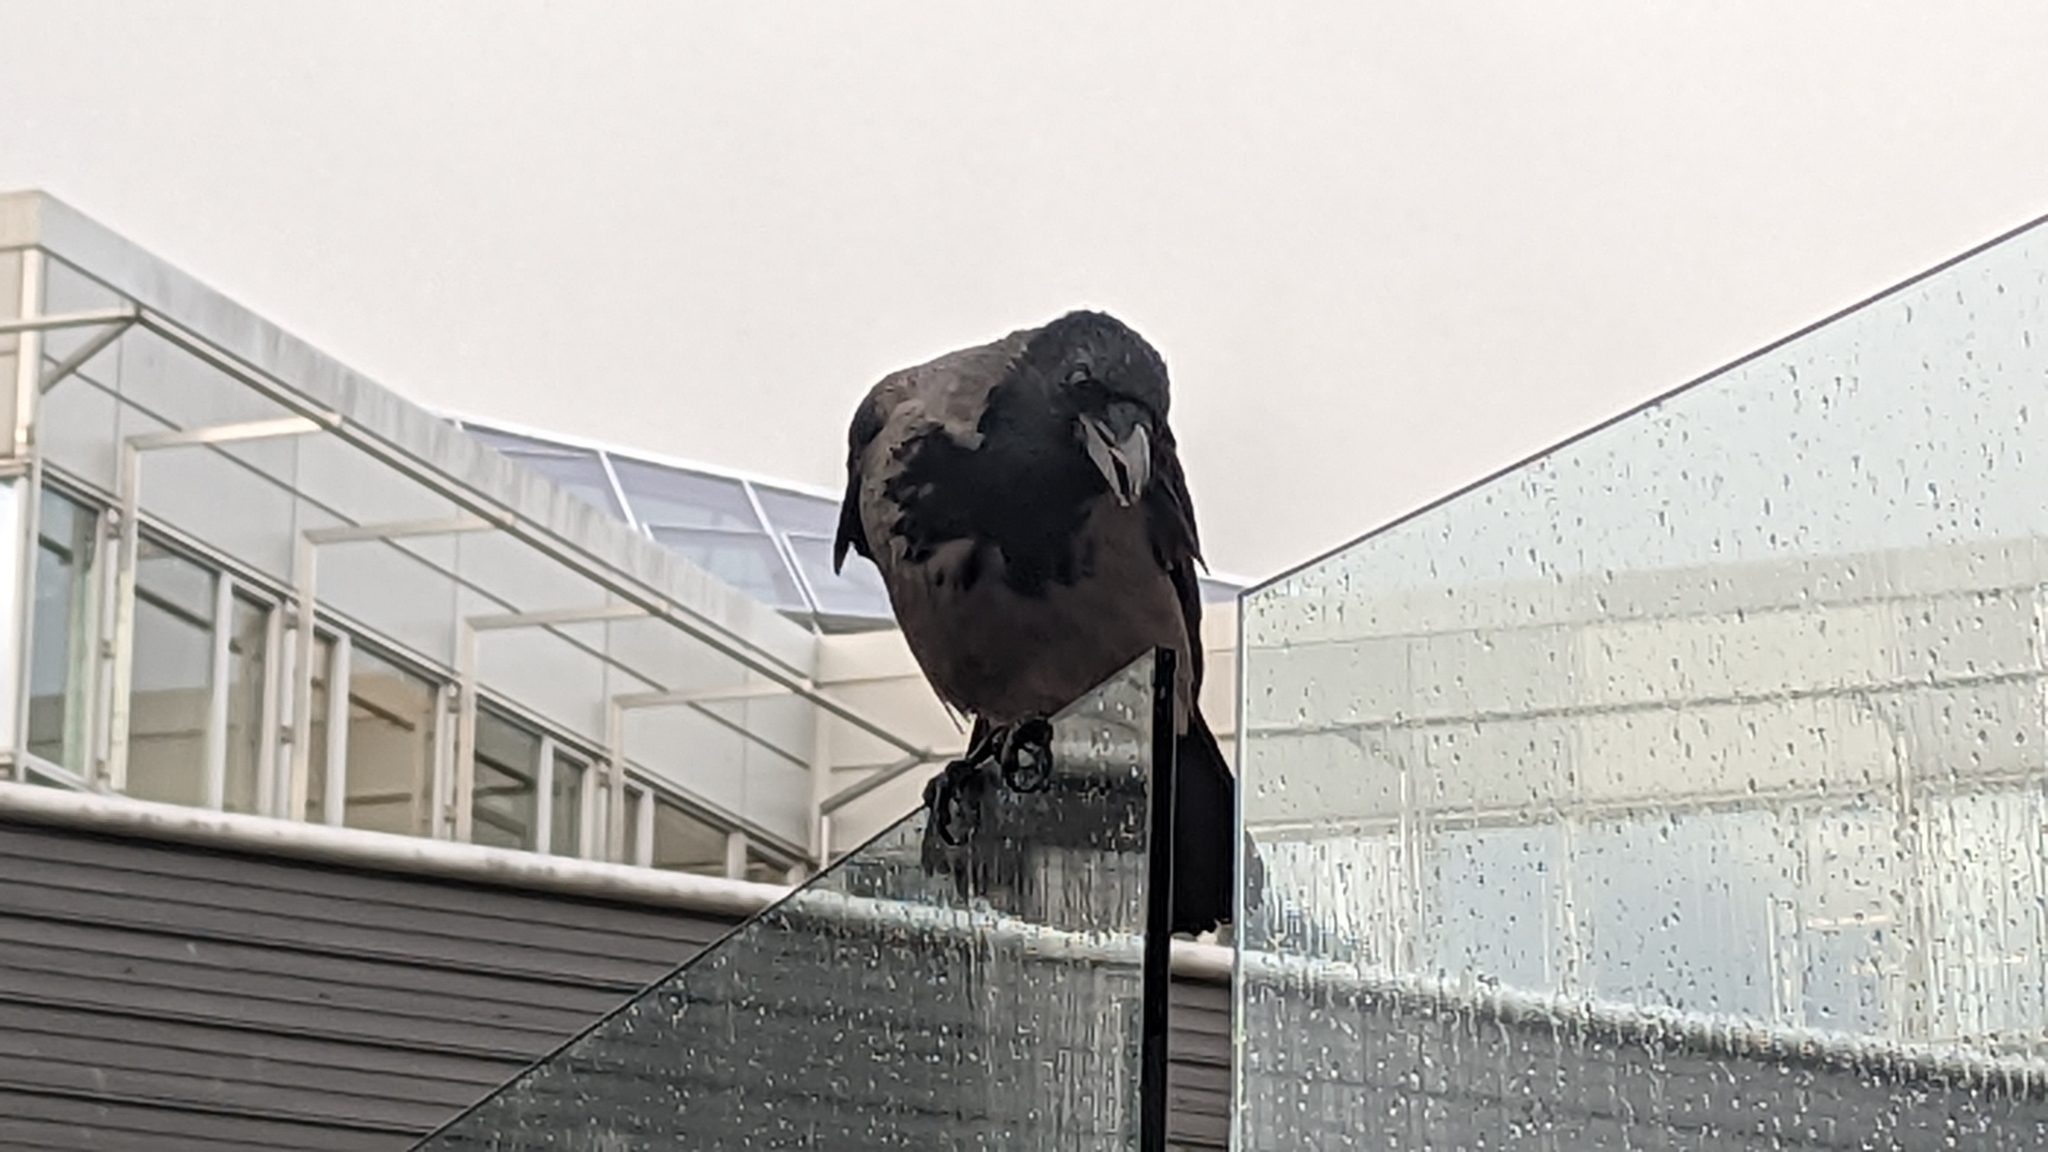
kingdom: Animalia
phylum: Chordata
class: Aves
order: Passeriformes
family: Corvidae
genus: Corvus
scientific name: Corvus cornix
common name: Hooded crow
